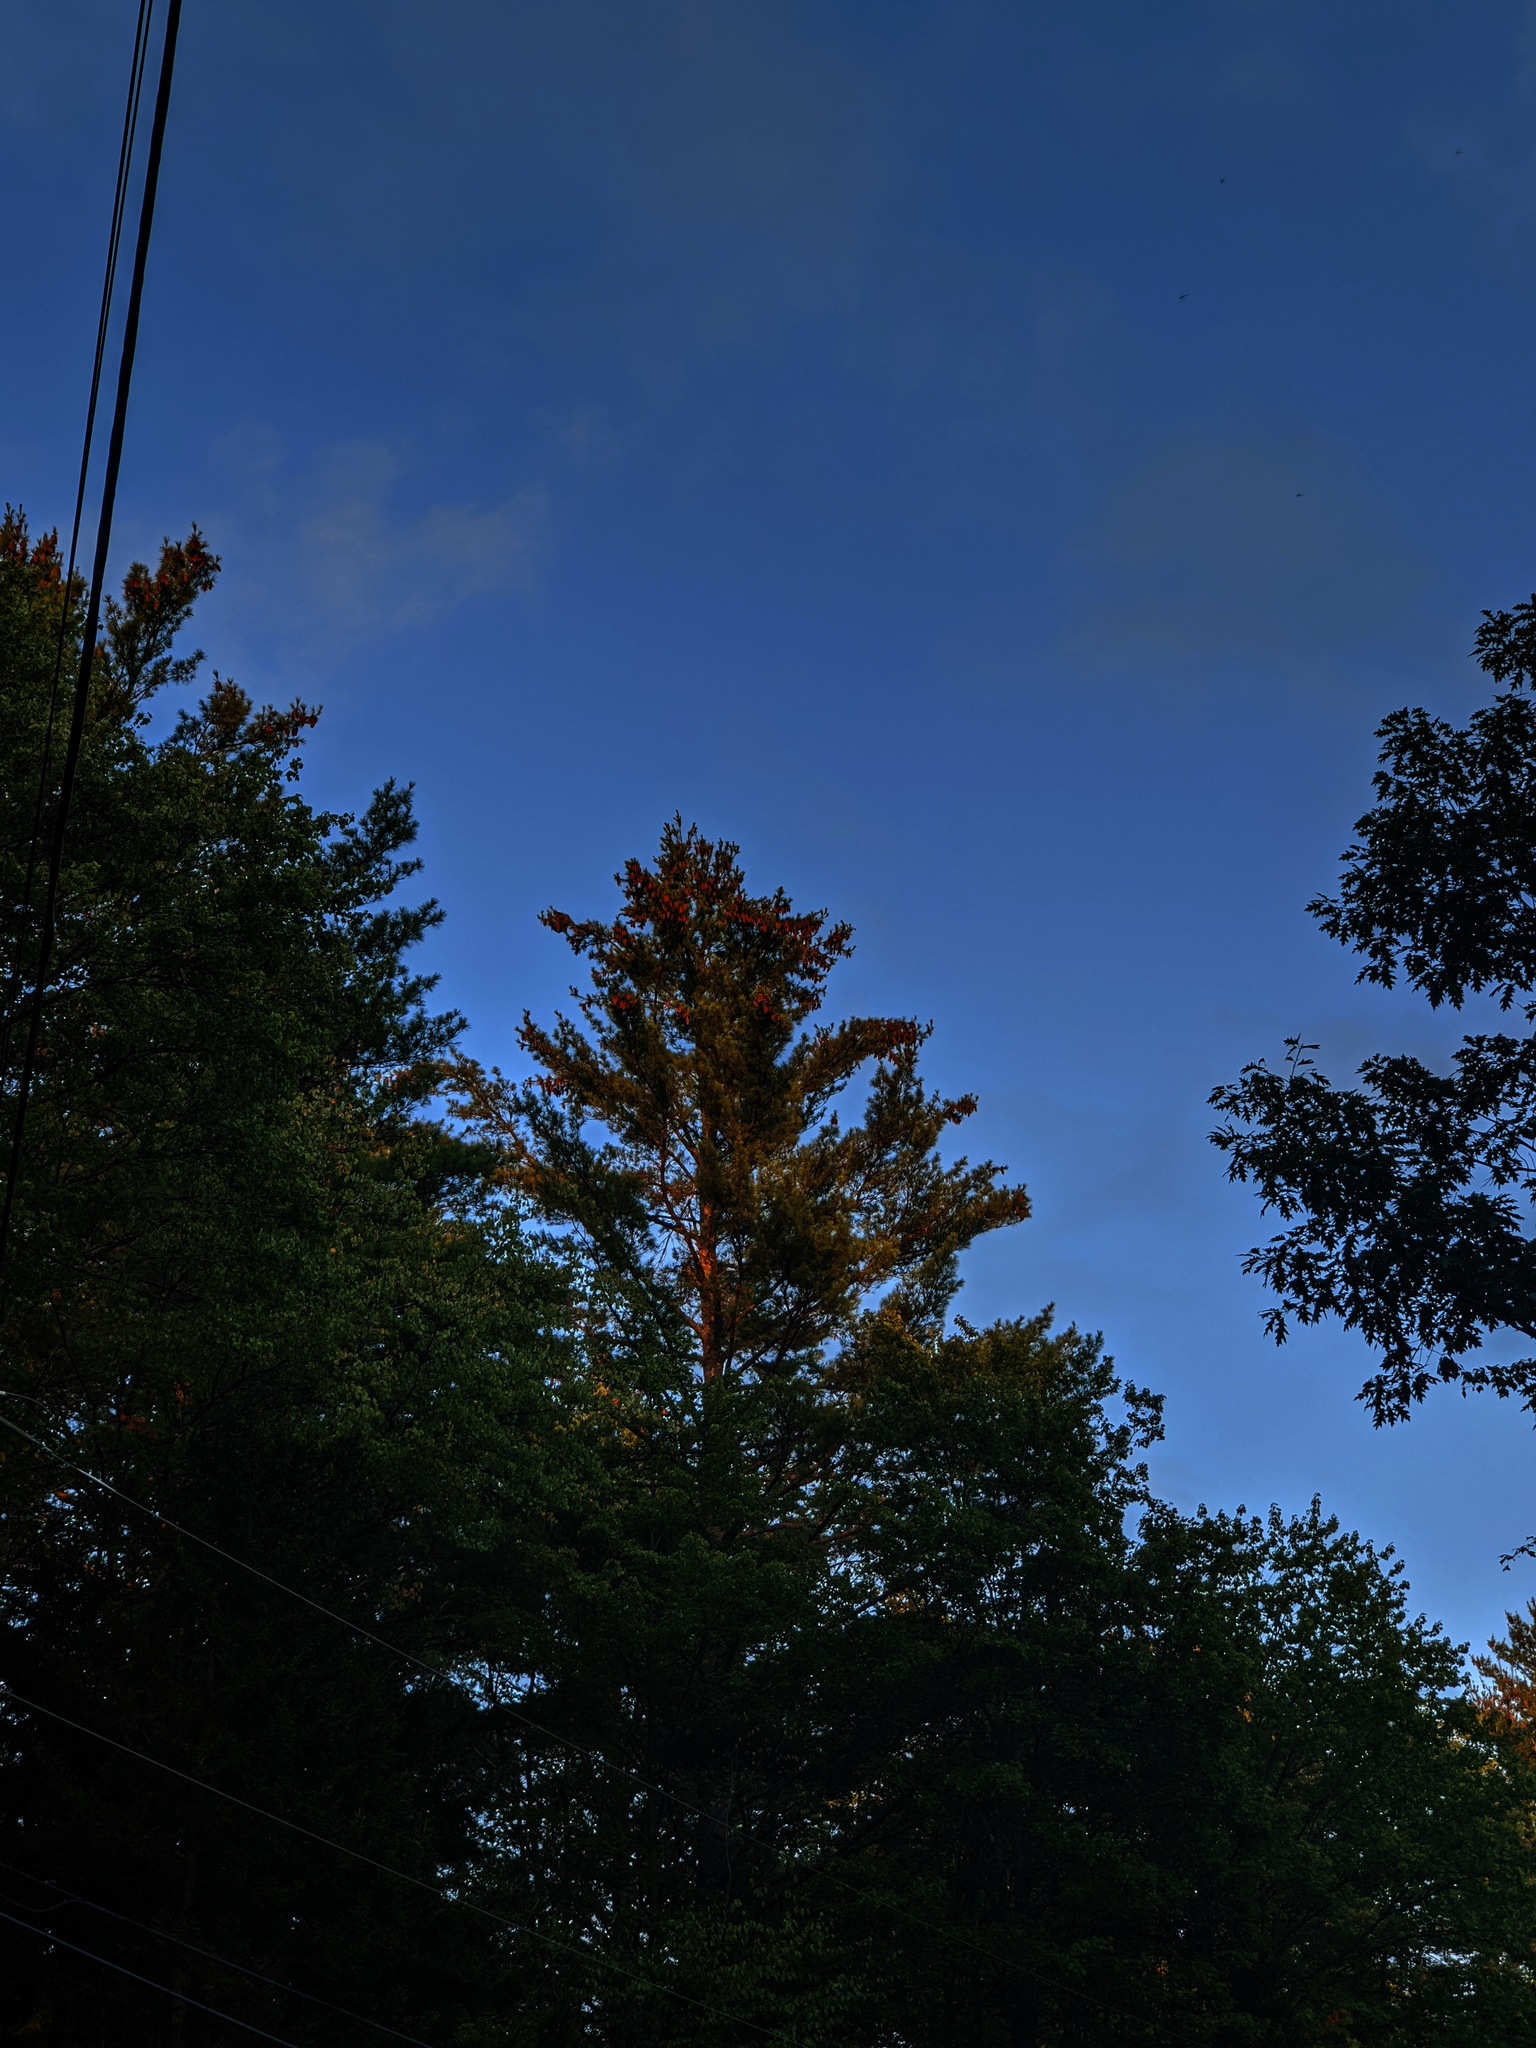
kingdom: Plantae
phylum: Tracheophyta
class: Pinopsida
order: Pinales
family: Pinaceae
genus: Pinus
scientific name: Pinus strobus
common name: Weymouth pine
